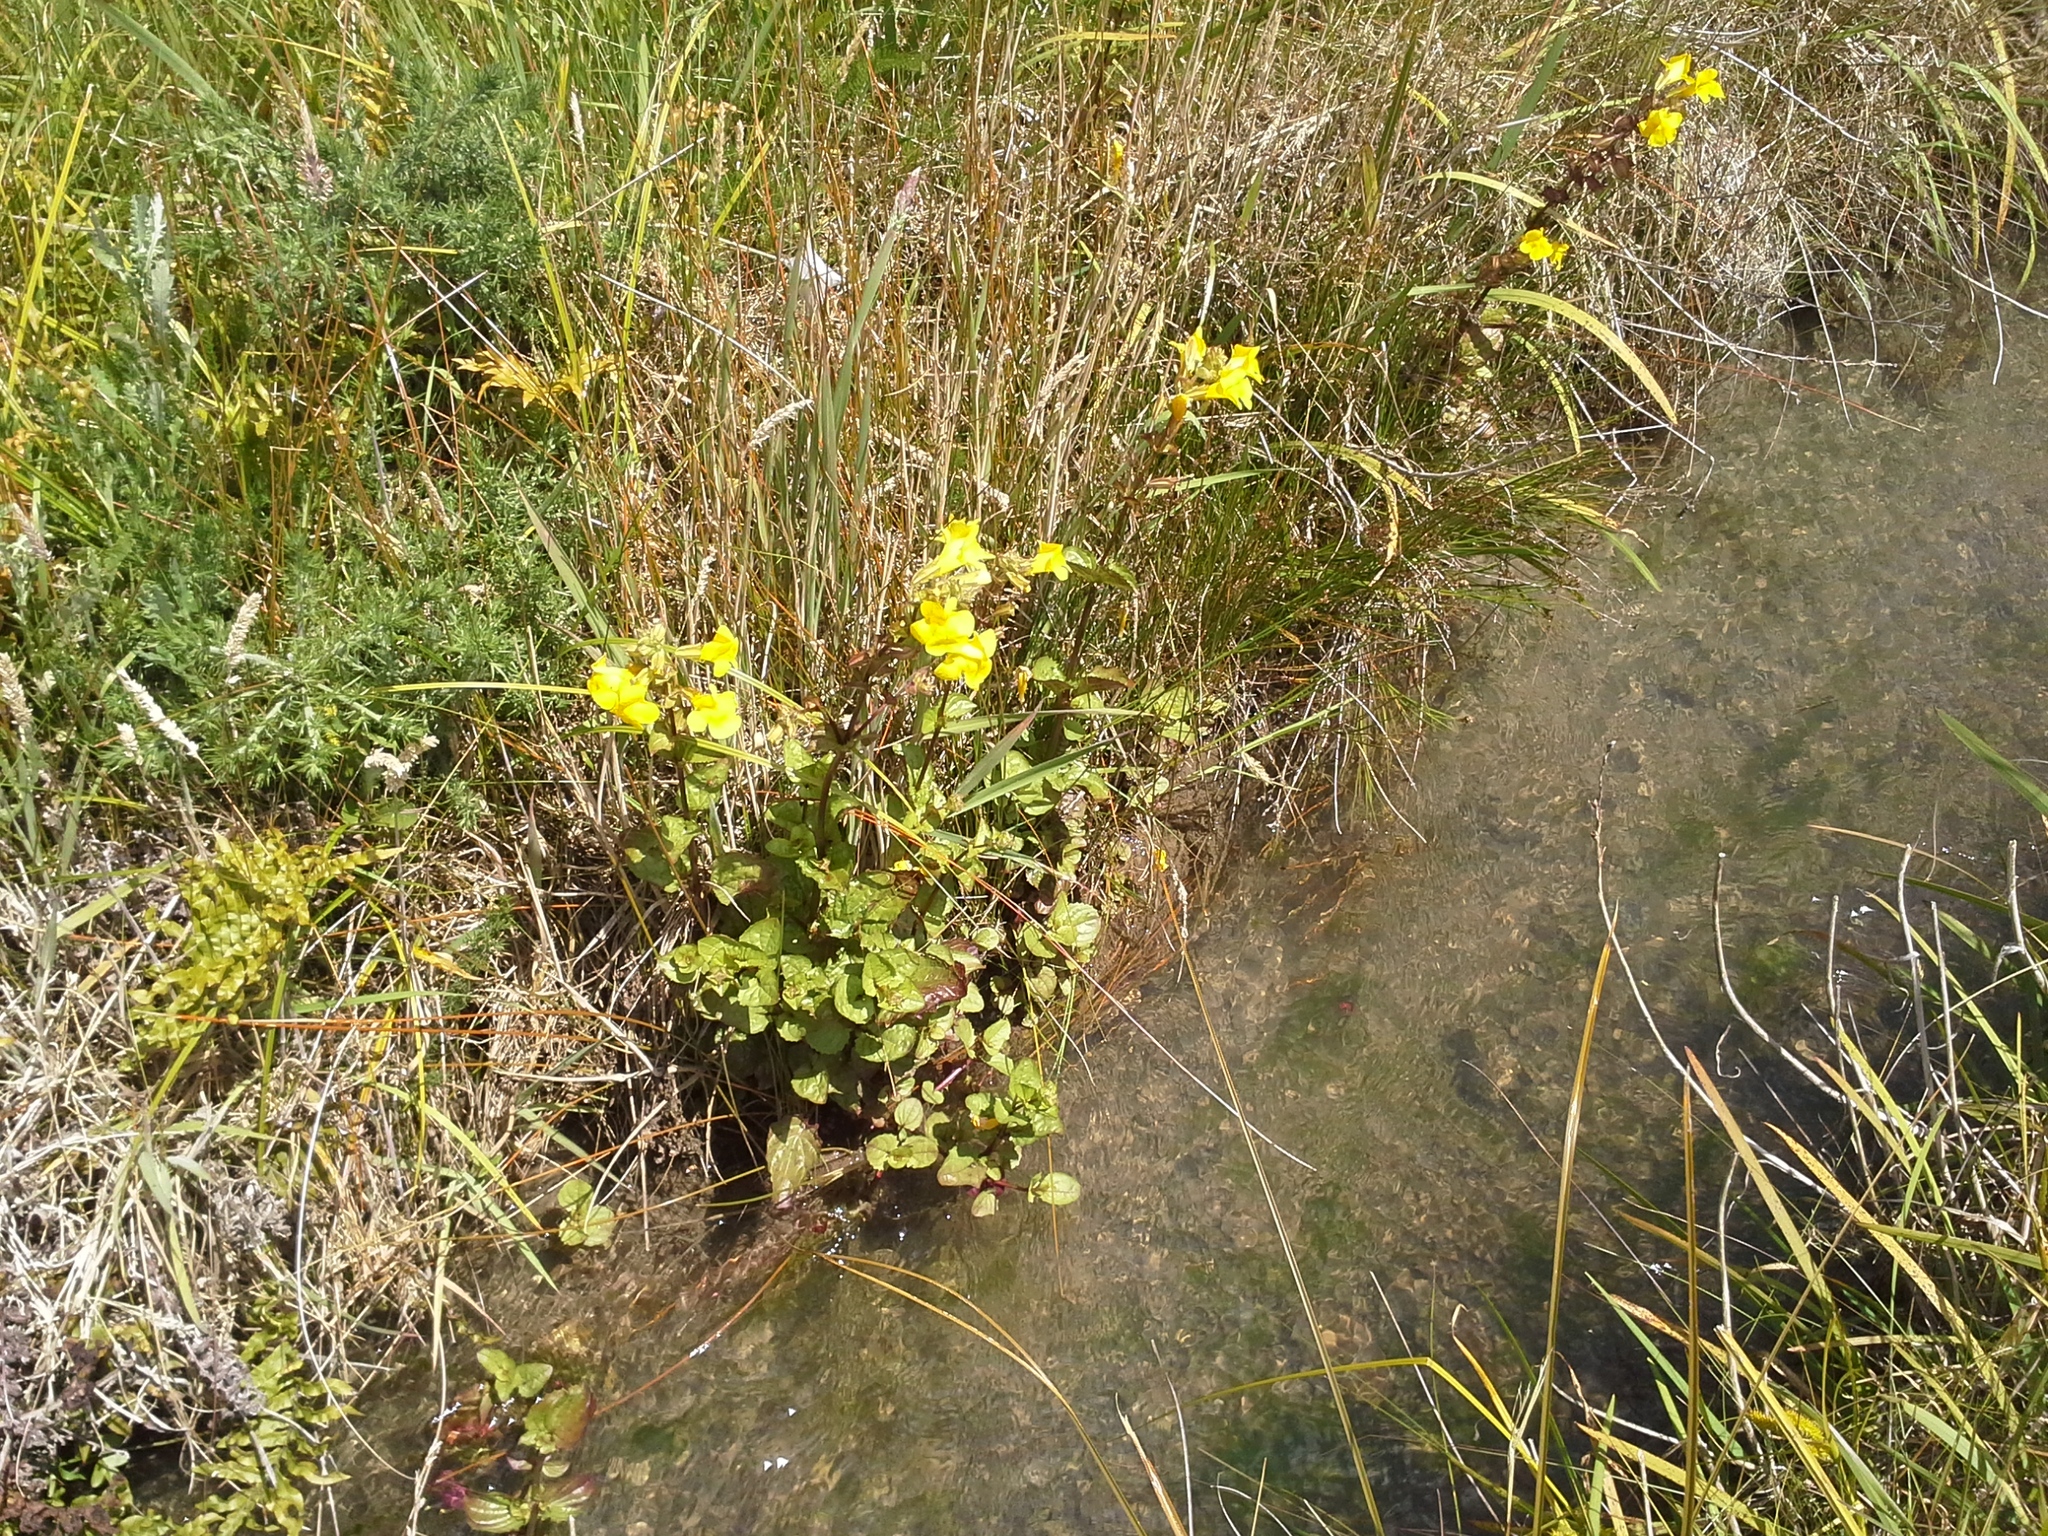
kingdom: Plantae
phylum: Tracheophyta
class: Magnoliopsida
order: Lamiales
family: Phrymaceae
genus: Erythranthe
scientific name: Erythranthe guttata
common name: Monkeyflower
